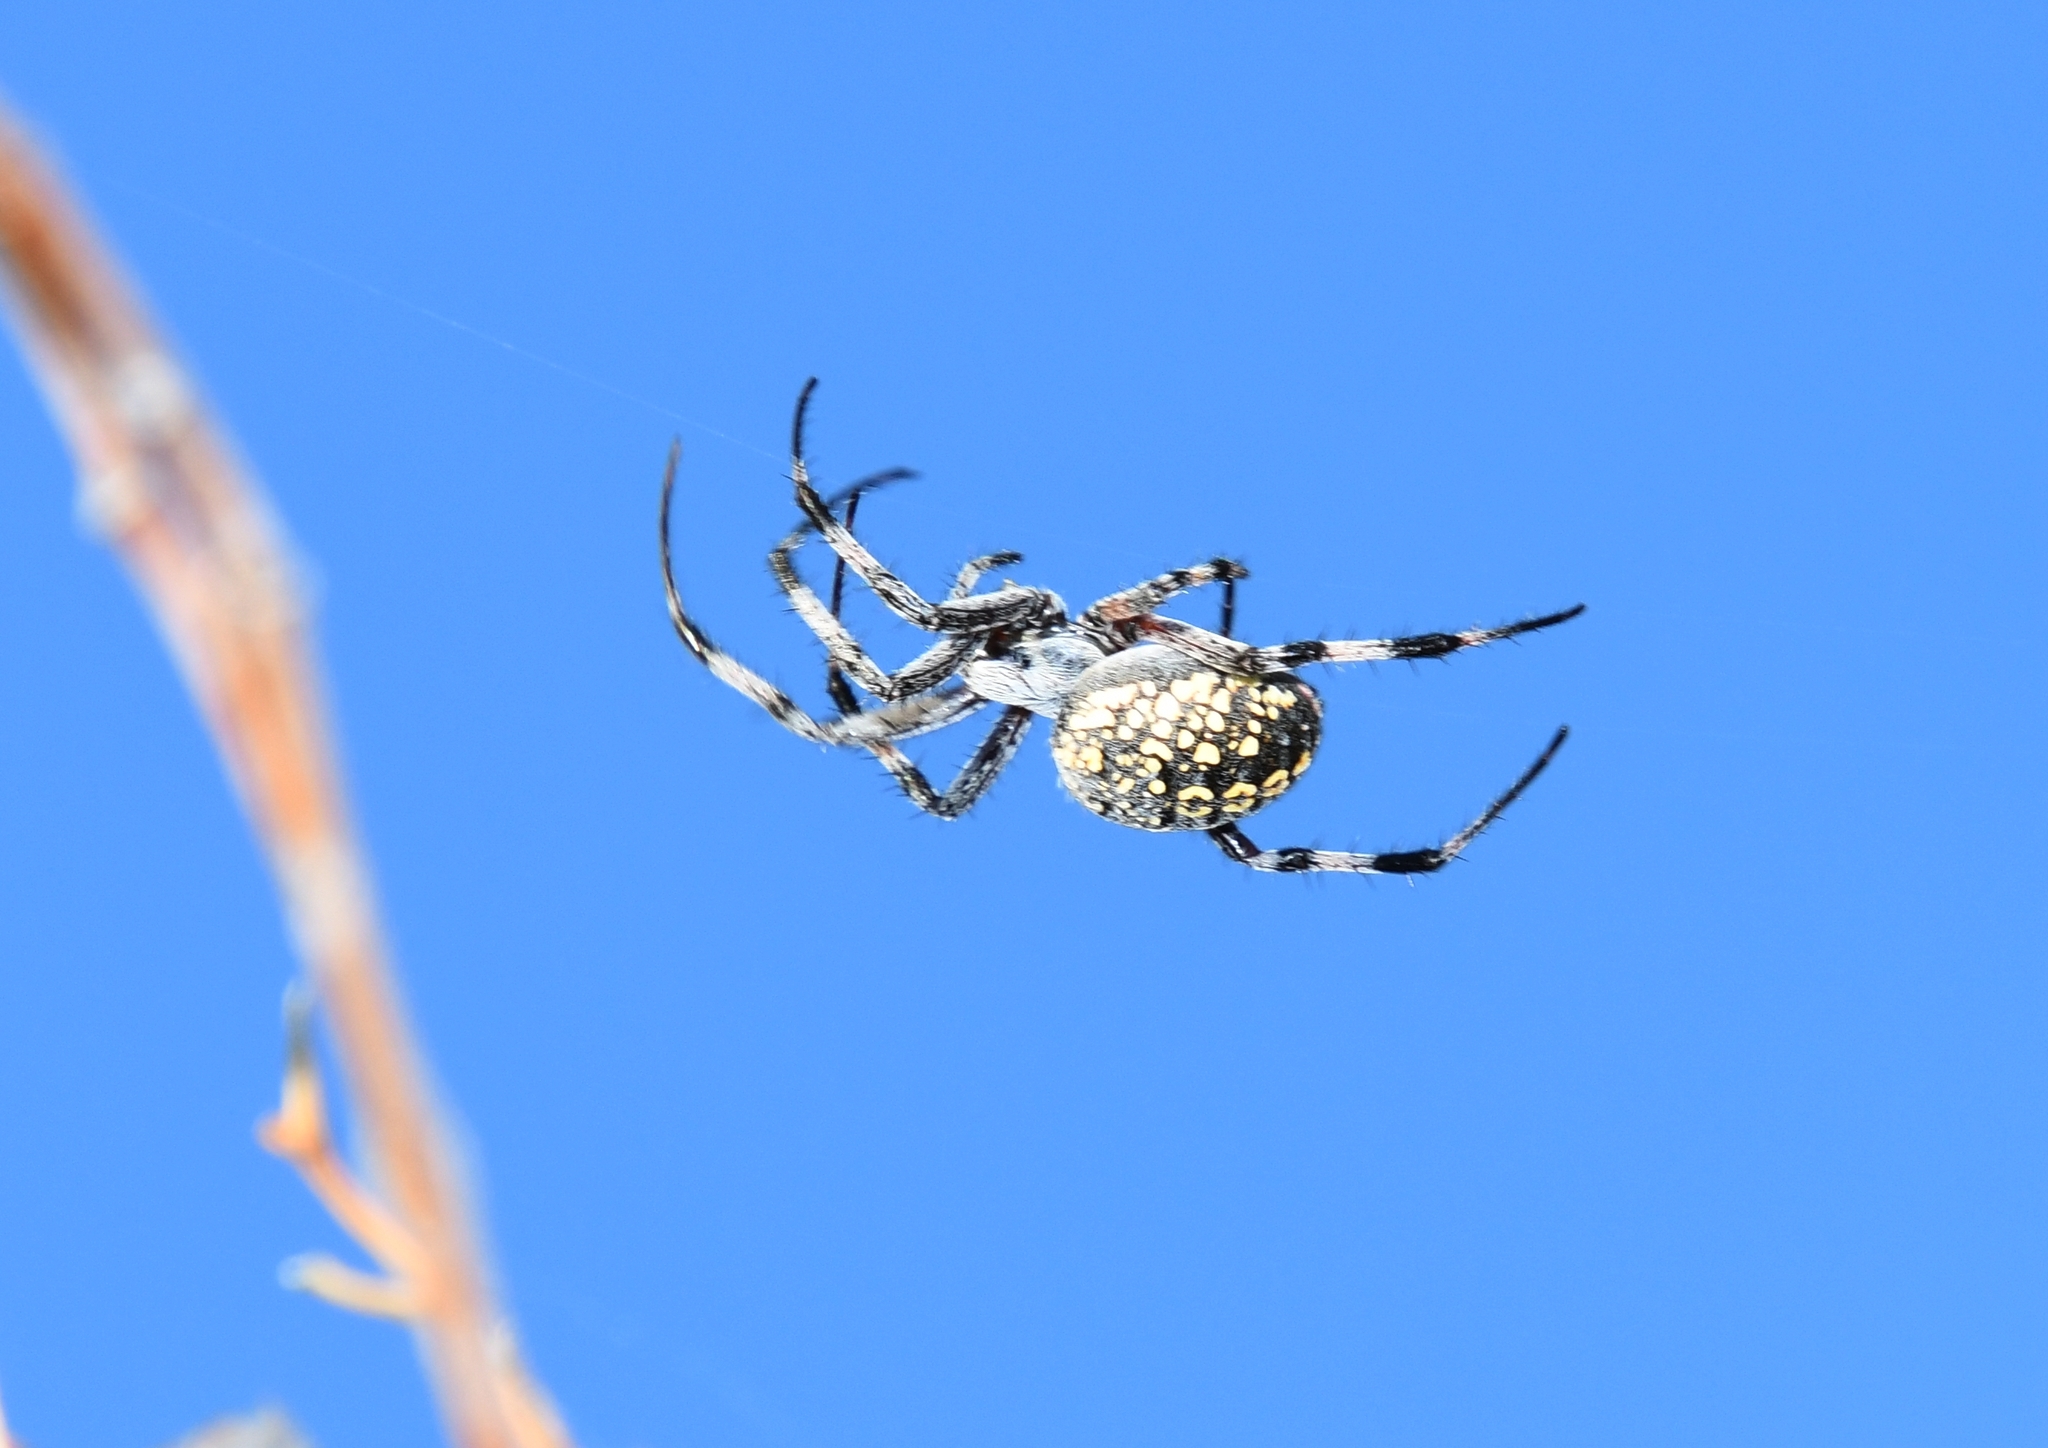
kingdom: Animalia
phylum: Arthropoda
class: Arachnida
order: Araneae
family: Araneidae
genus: Neoscona
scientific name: Neoscona oaxacensis
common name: Orb weavers
